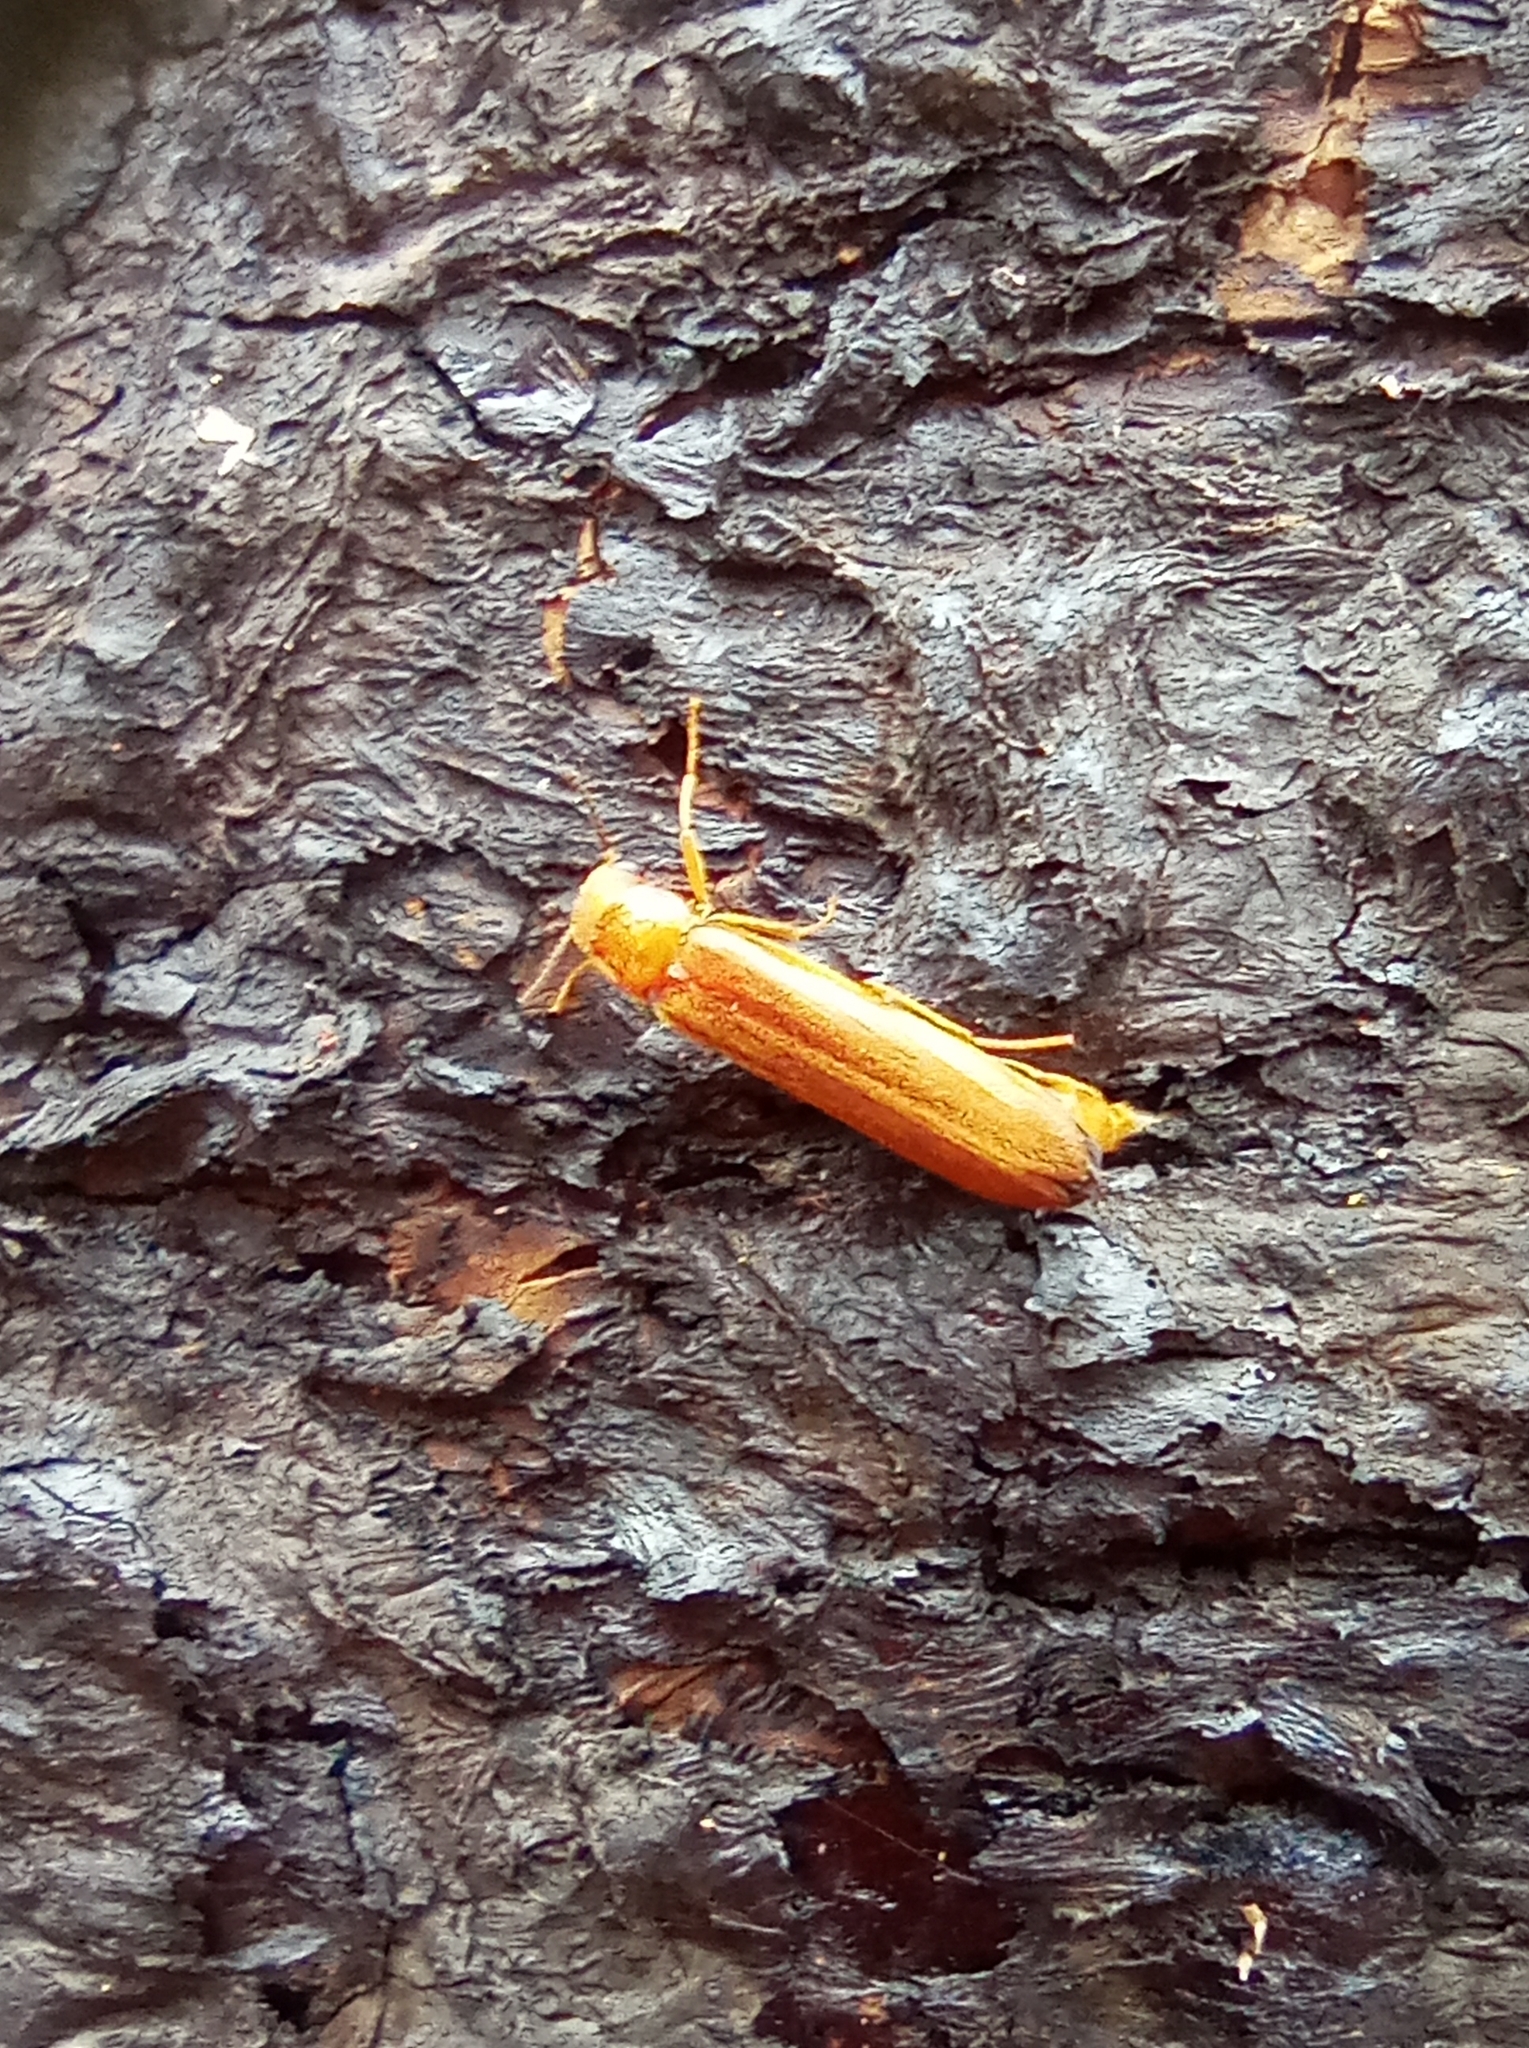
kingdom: Animalia
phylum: Arthropoda
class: Insecta
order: Coleoptera
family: Lymexylidae
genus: Hylecoetus
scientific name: Hylecoetus dermestoides
